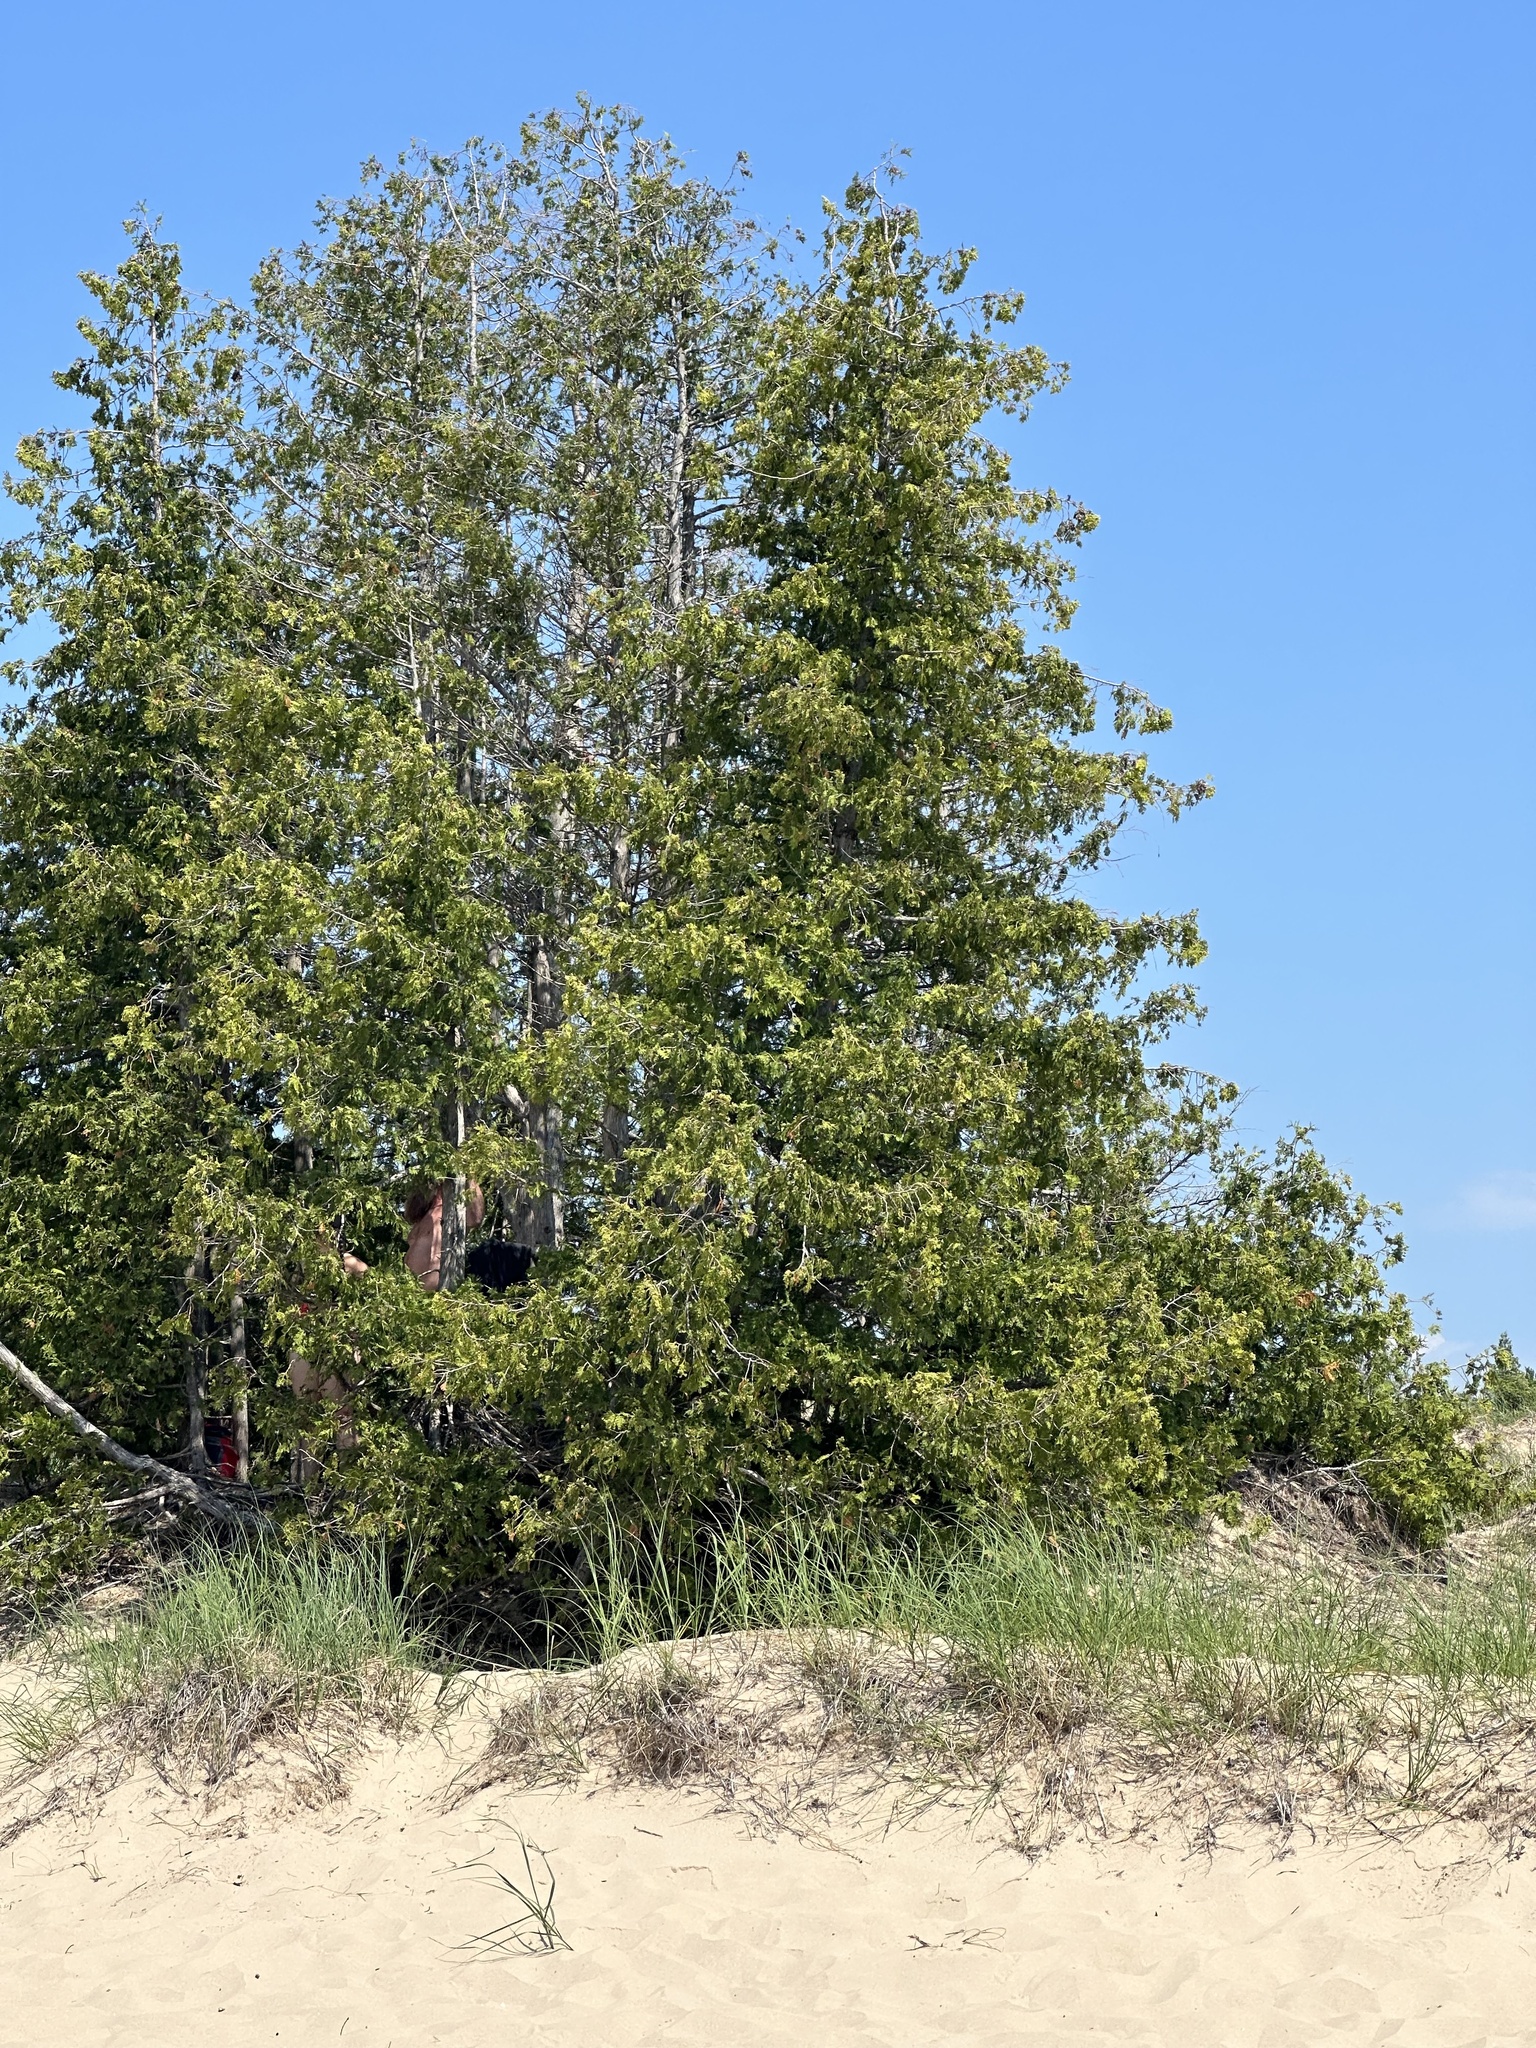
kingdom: Plantae
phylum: Tracheophyta
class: Pinopsida
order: Pinales
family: Cupressaceae
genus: Thuja
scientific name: Thuja occidentalis
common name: Northern white-cedar
